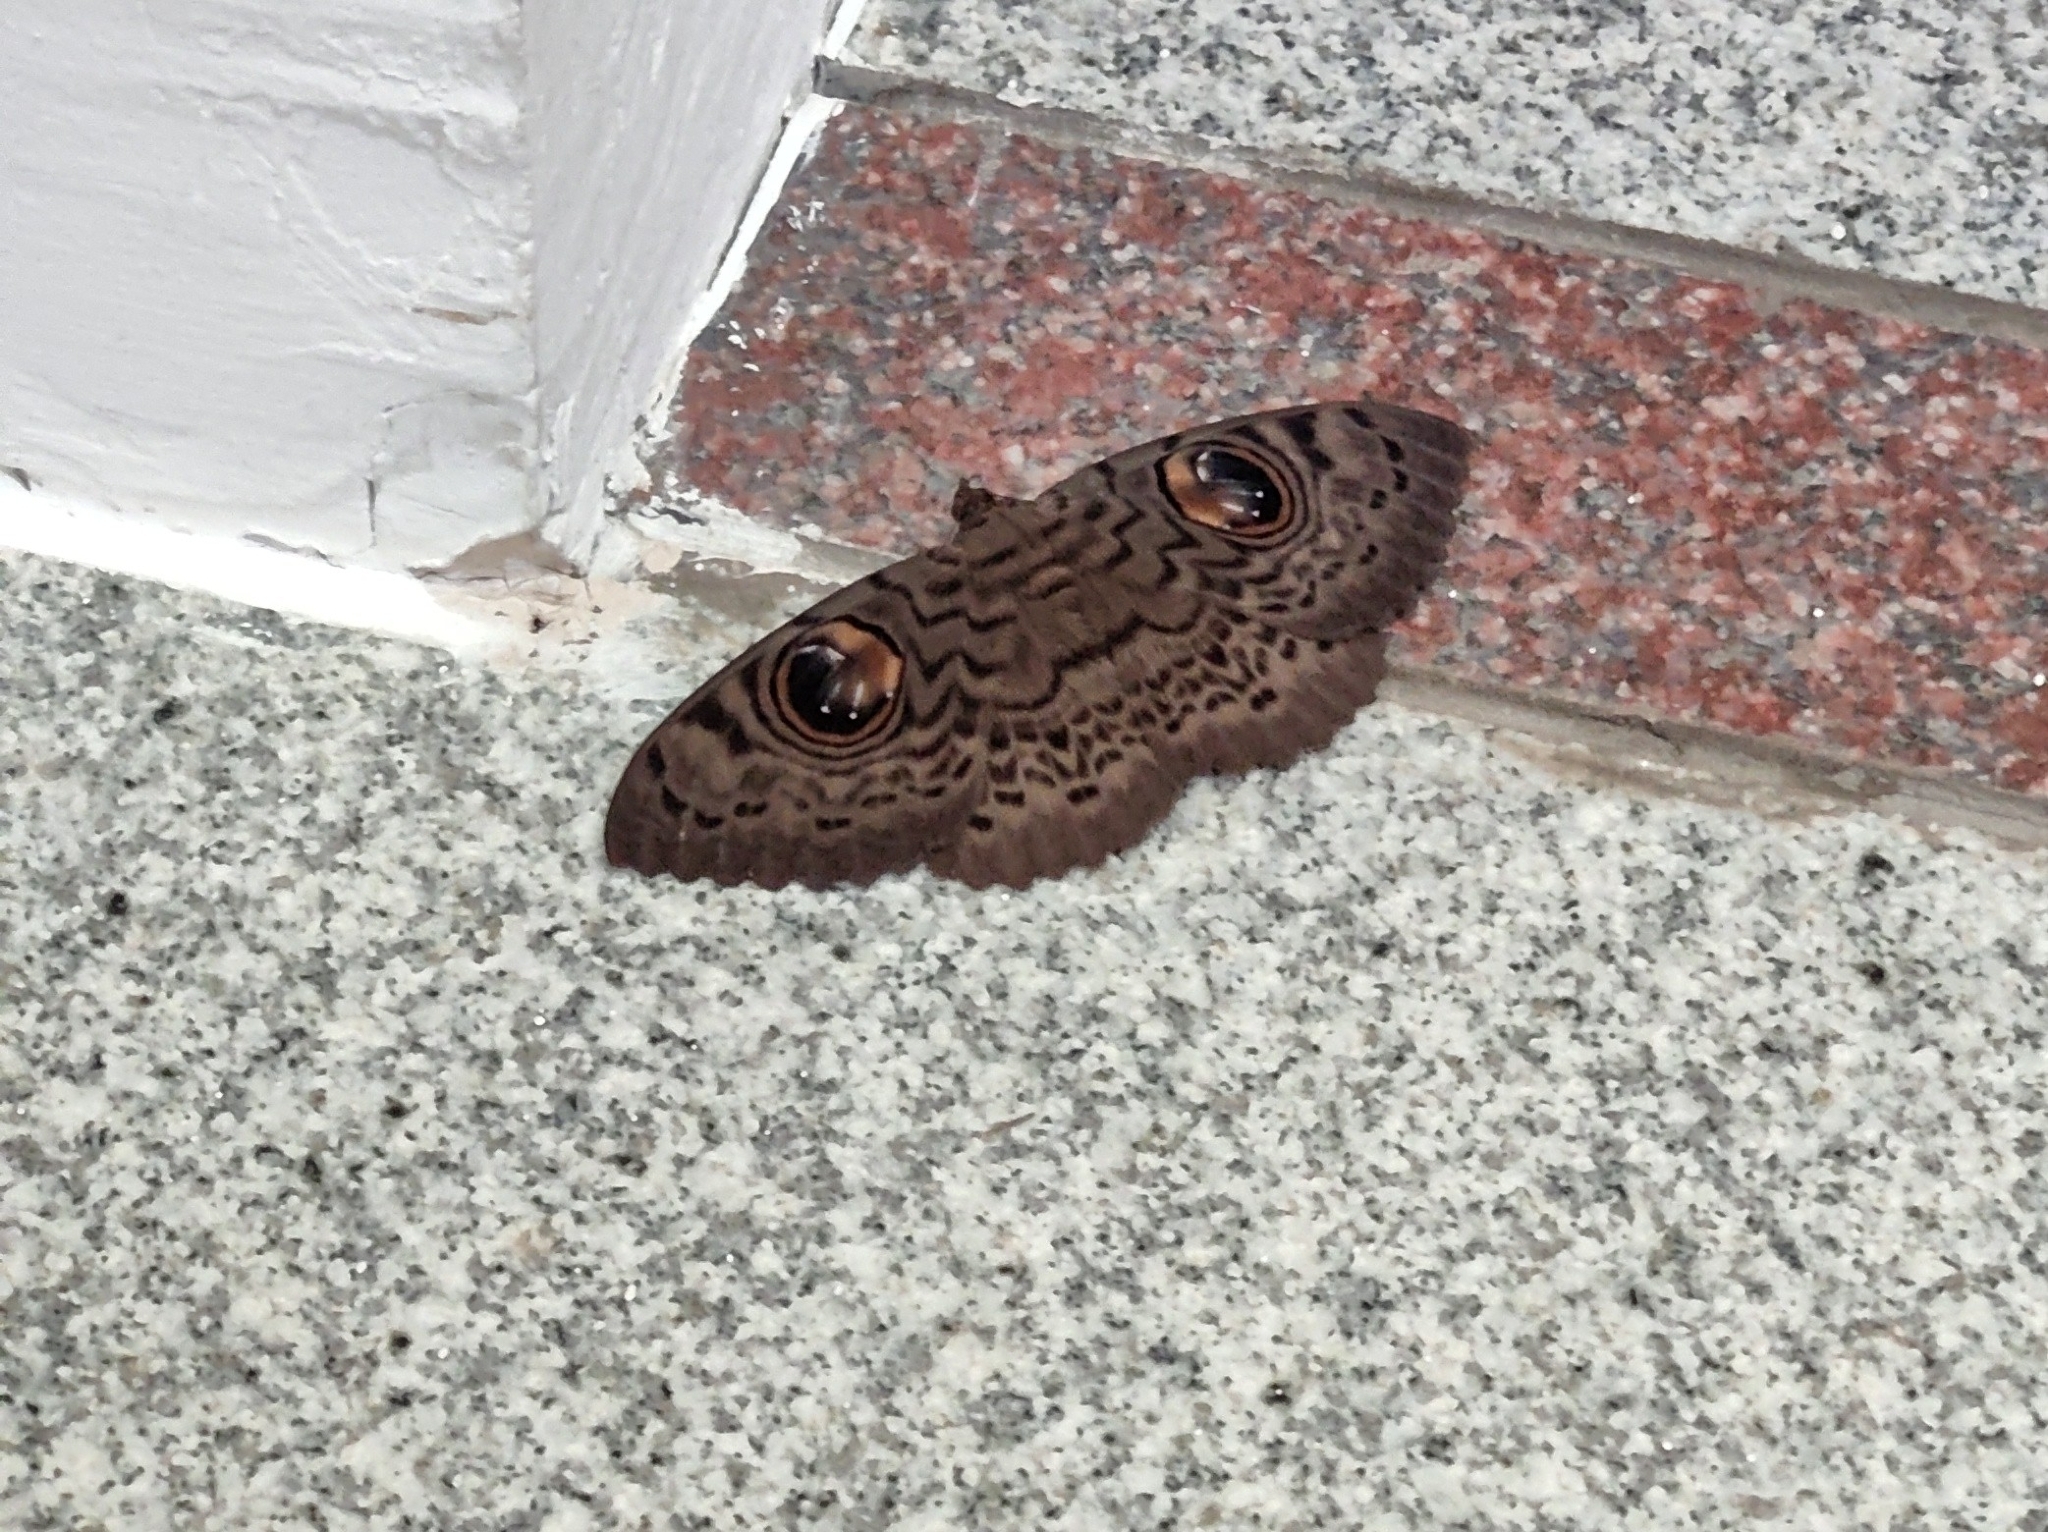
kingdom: Animalia
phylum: Arthropoda
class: Insecta
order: Lepidoptera
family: Erebidae
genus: Erebus
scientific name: Erebus macrops
